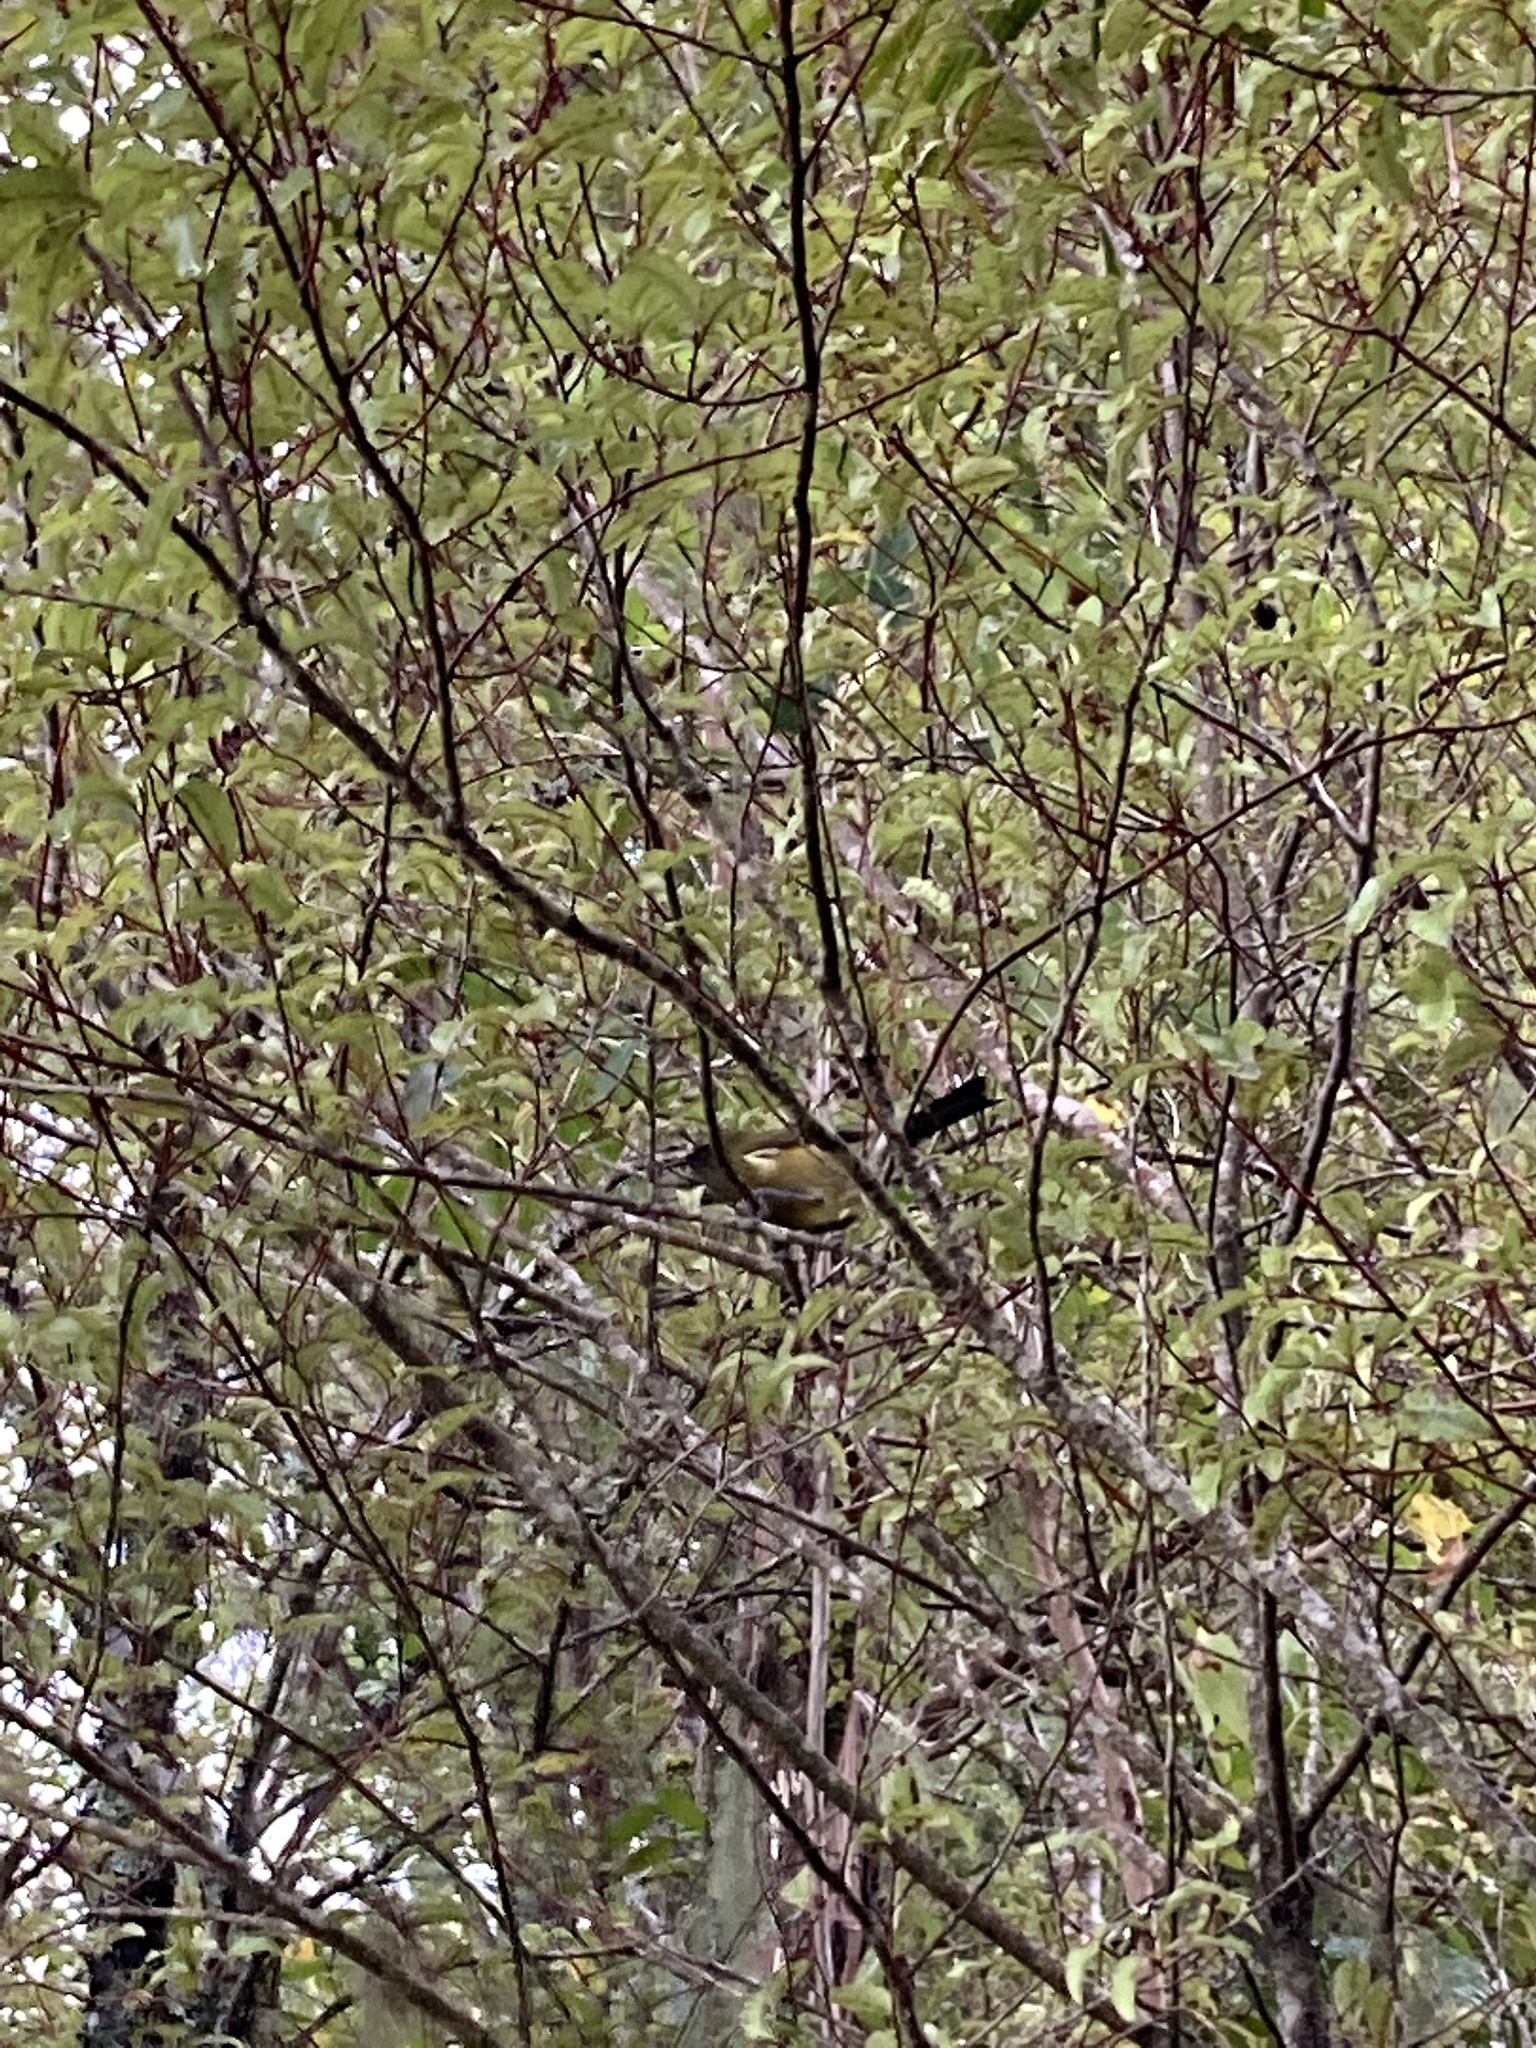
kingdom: Animalia
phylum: Chordata
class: Aves
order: Passeriformes
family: Meliphagidae
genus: Anthornis
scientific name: Anthornis melanura
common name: New zealand bellbird
